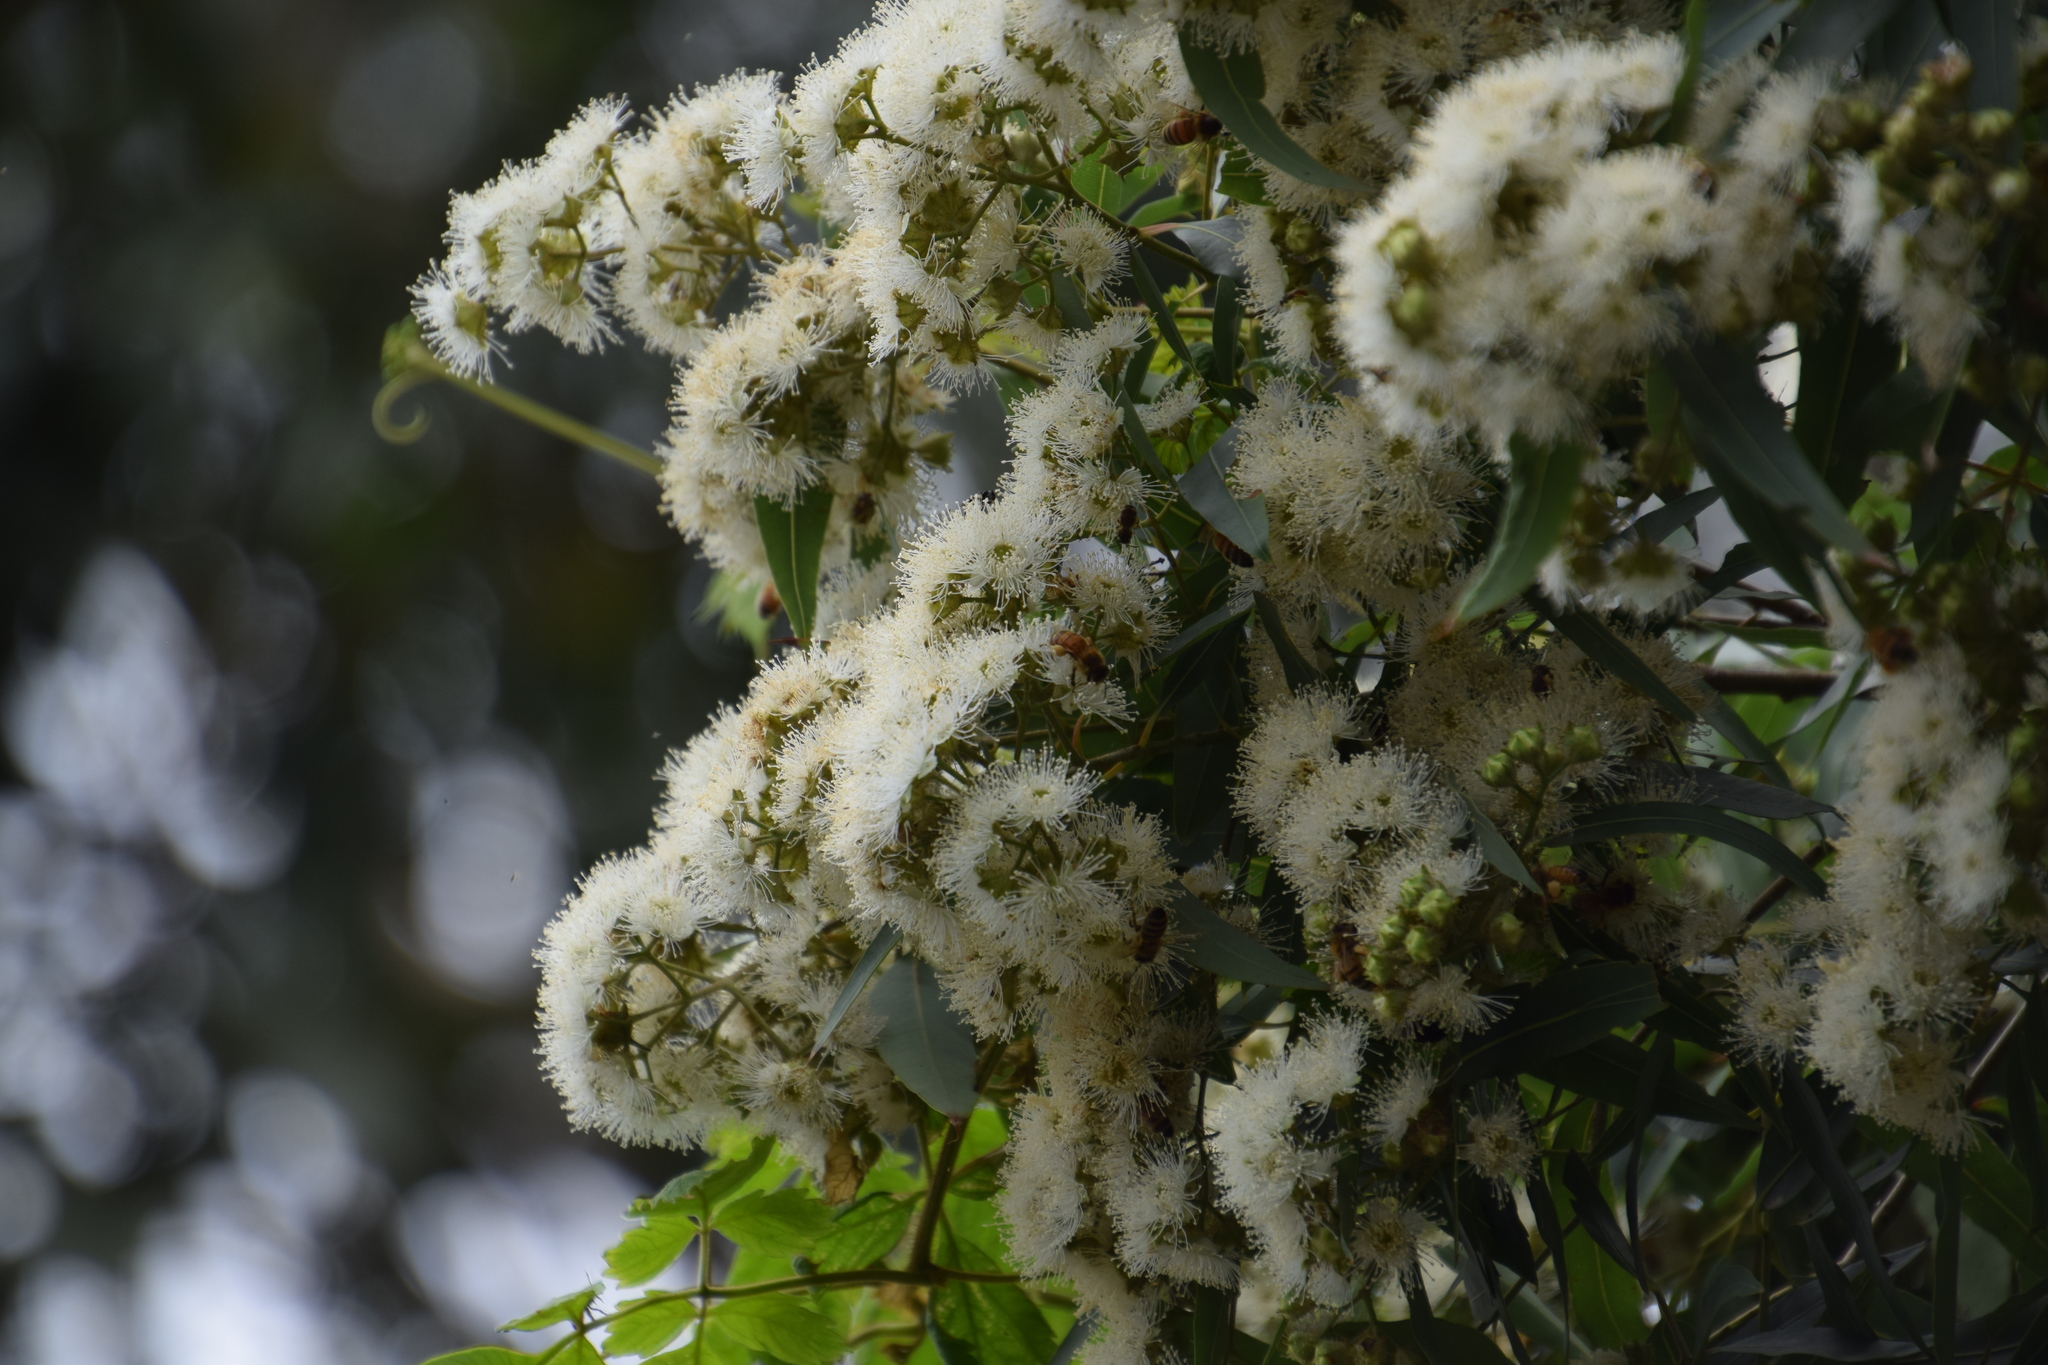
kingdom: Plantae
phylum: Tracheophyta
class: Magnoliopsida
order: Myrtales
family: Myrtaceae
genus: Angophora
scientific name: Angophora floribunda
